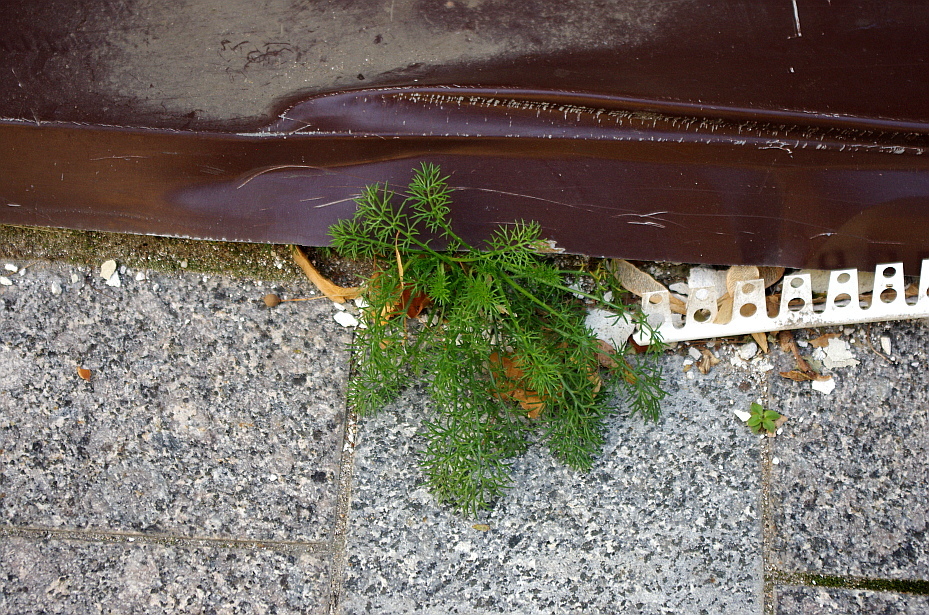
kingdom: Plantae
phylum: Tracheophyta
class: Magnoliopsida
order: Asterales
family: Asteraceae
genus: Tripleurospermum
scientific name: Tripleurospermum inodorum
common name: Scentless mayweed
